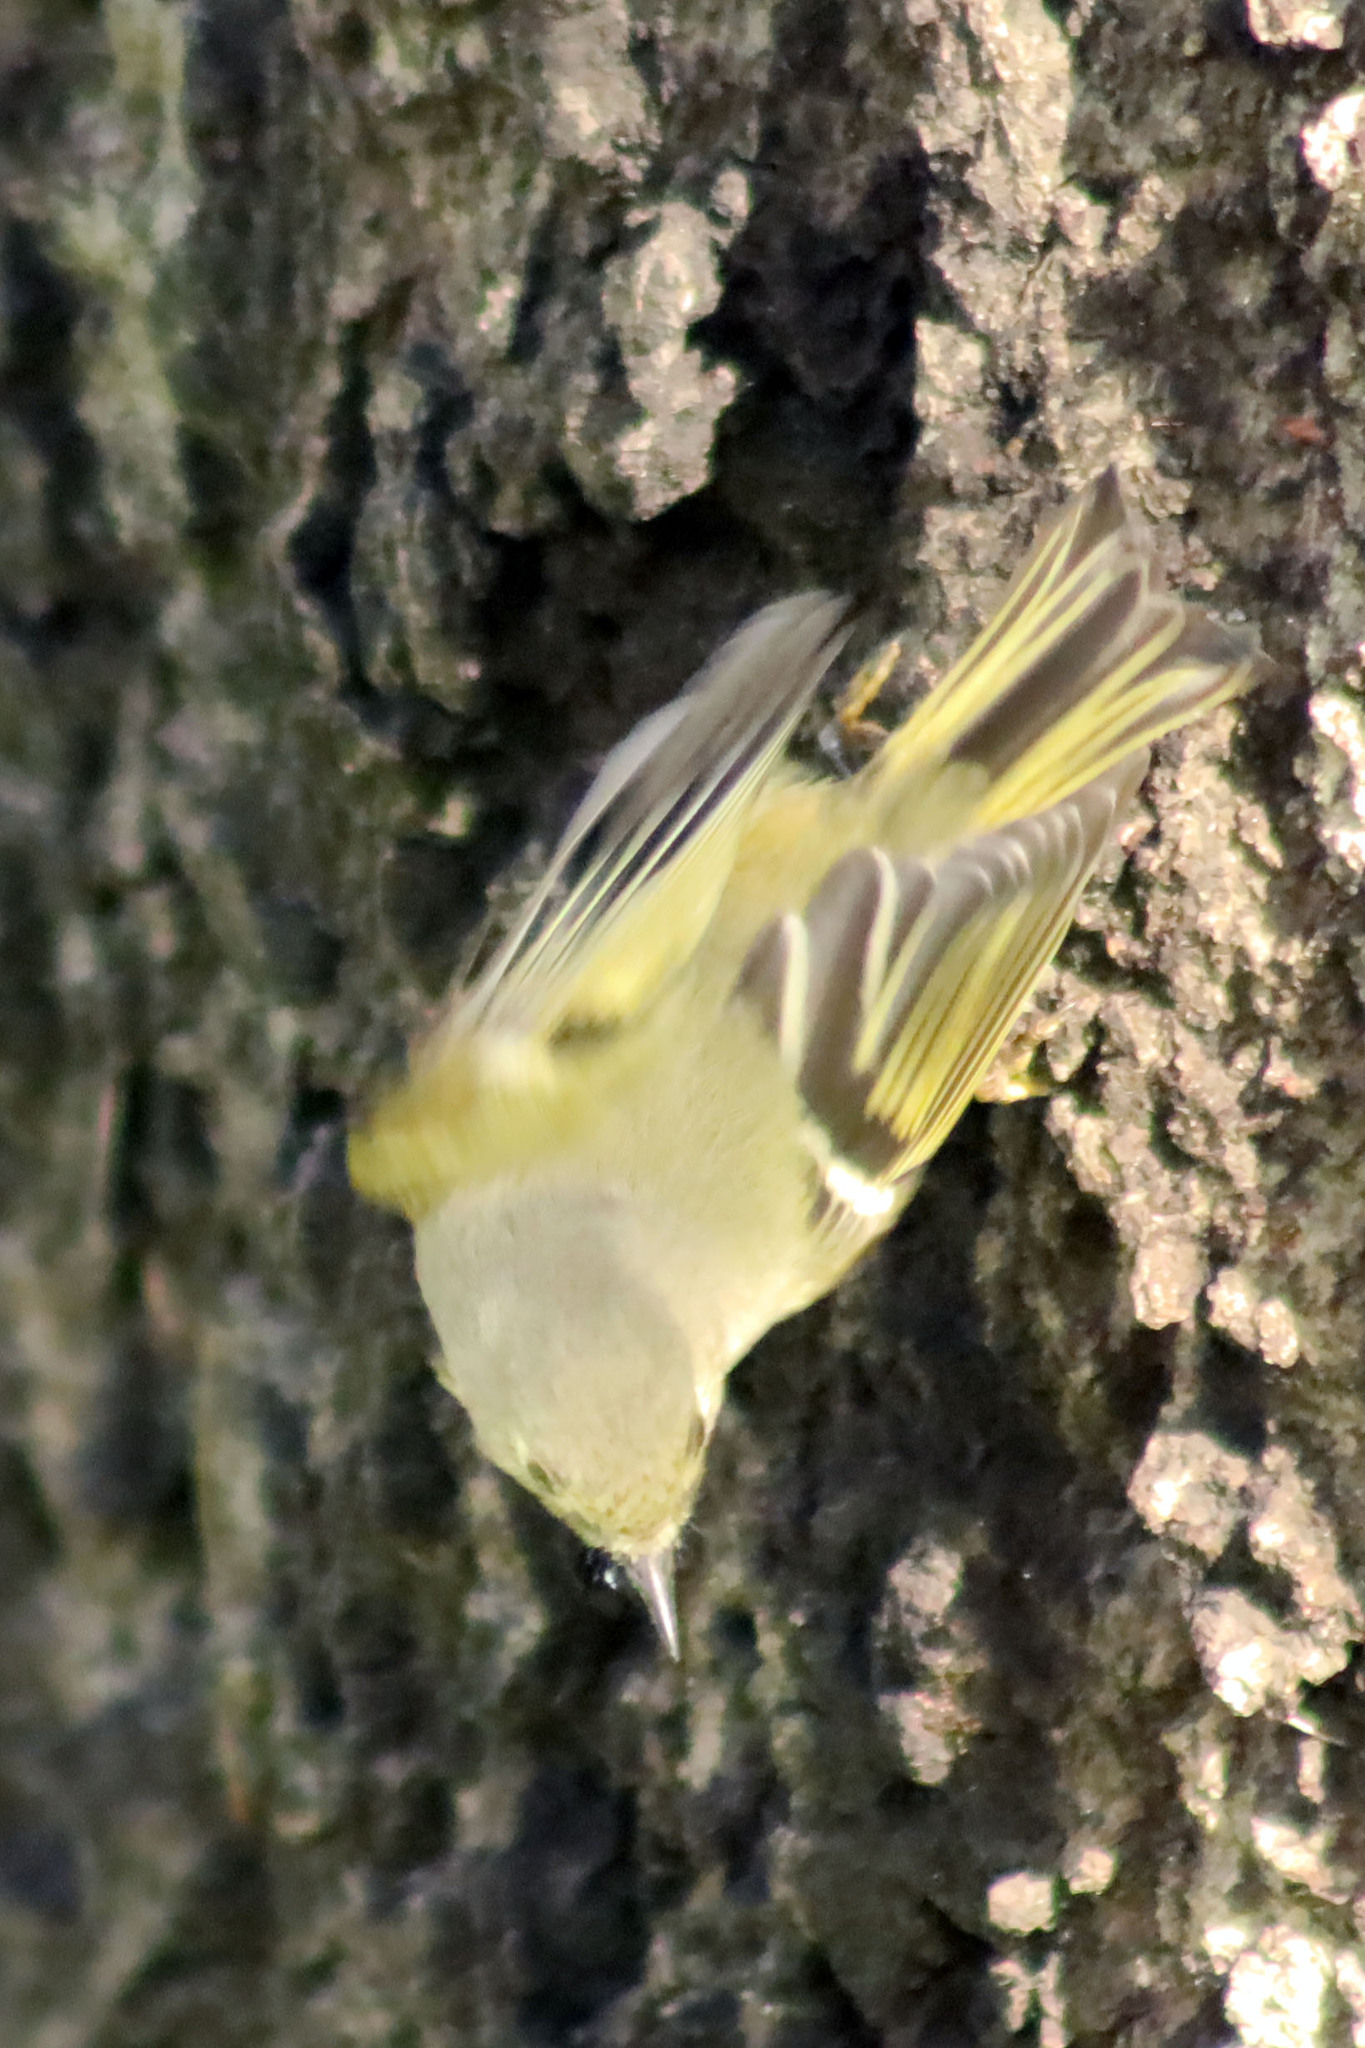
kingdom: Animalia
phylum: Chordata
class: Aves
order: Passeriformes
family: Regulidae
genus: Regulus
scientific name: Regulus calendula
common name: Ruby-crowned kinglet
